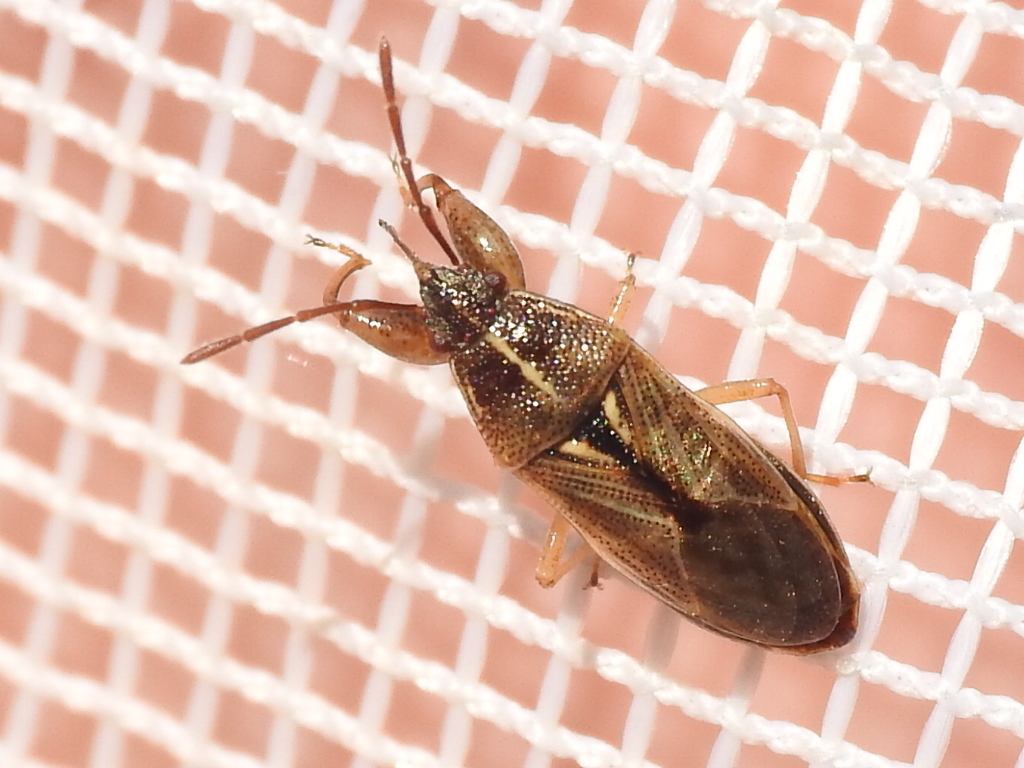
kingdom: Animalia
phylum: Arthropoda
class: Insecta
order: Hemiptera
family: Pachygronthidae
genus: Oedancala
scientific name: Oedancala dorsalis
